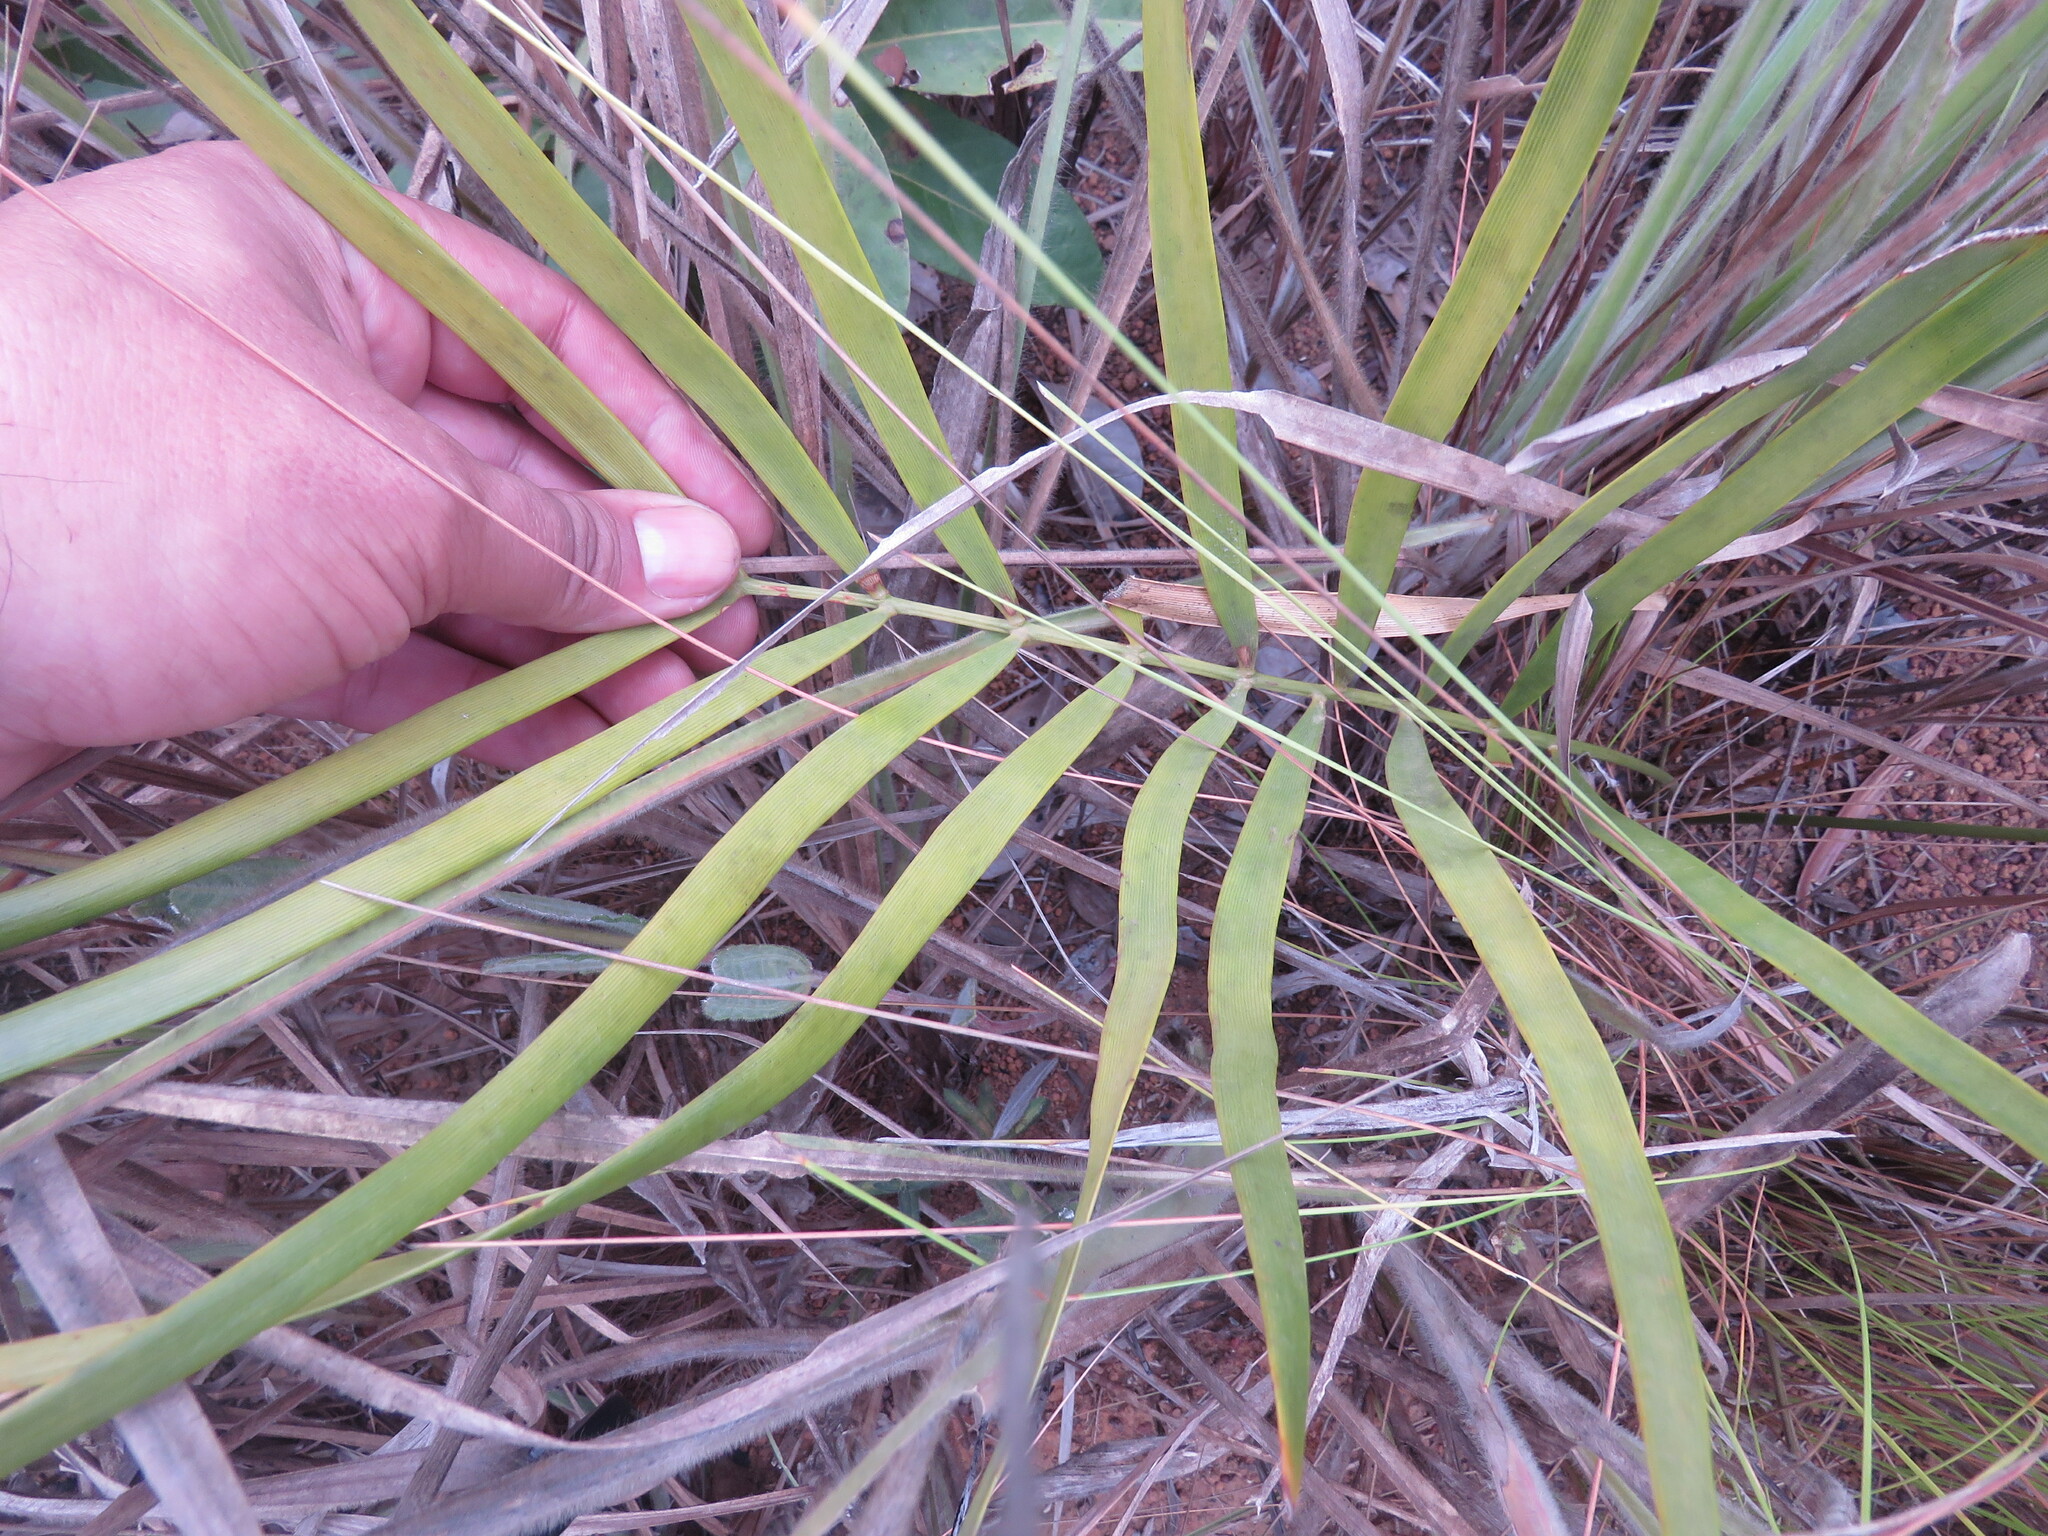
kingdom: Plantae
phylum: Tracheophyta
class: Cycadopsida
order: Cycadales
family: Zamiaceae
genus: Zamia
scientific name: Zamia boliviana
